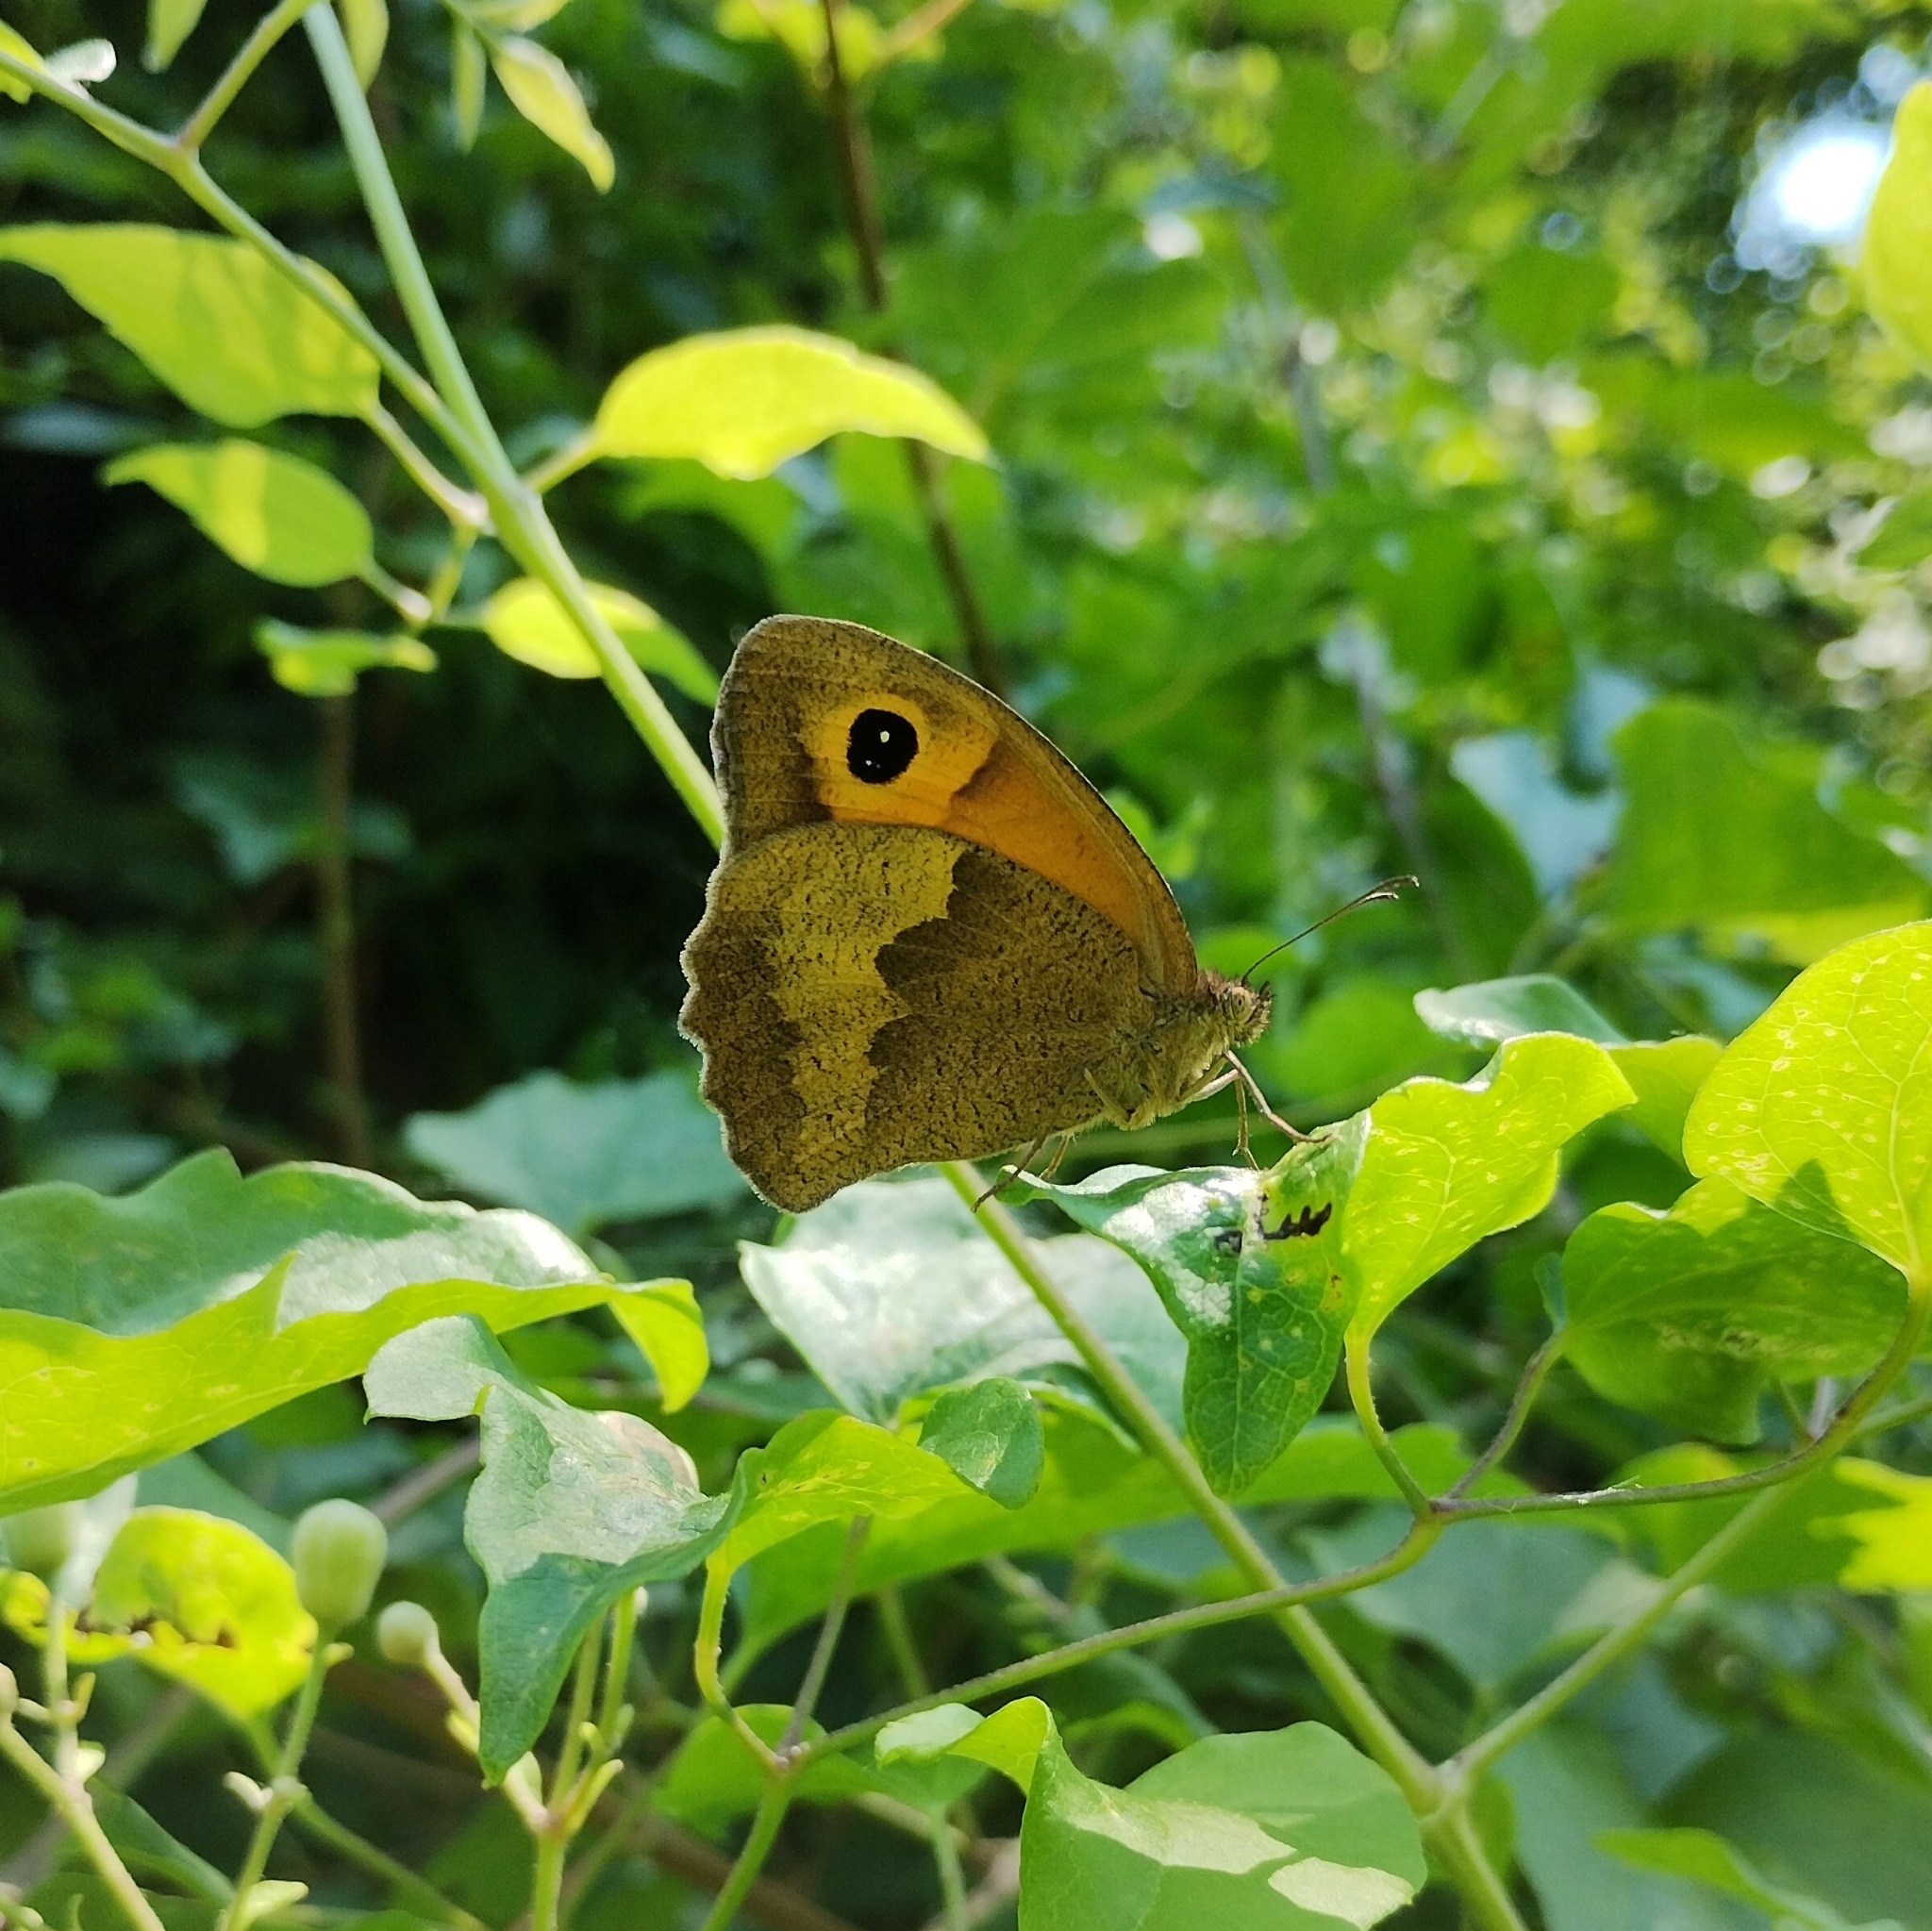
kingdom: Animalia
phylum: Arthropoda
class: Insecta
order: Lepidoptera
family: Nymphalidae
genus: Maniola
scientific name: Maniola jurtina
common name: Meadow brown
